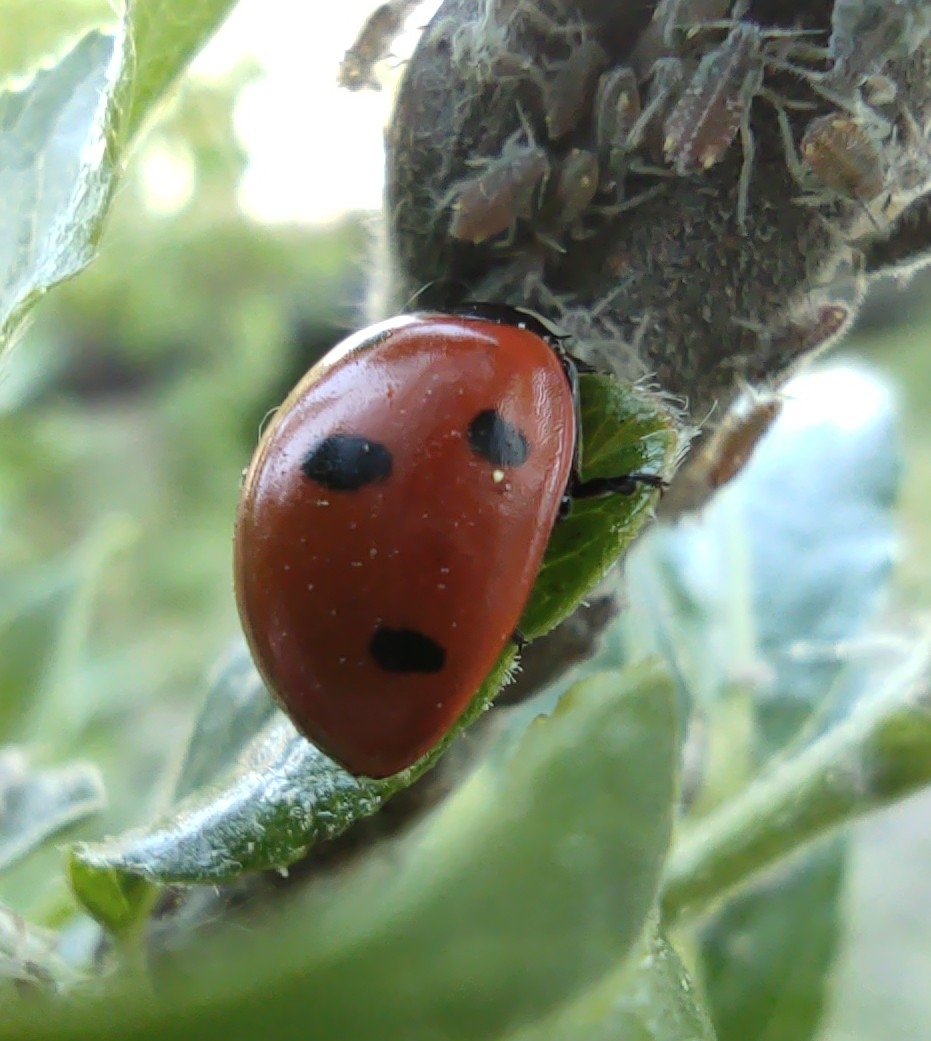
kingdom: Animalia
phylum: Arthropoda
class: Insecta
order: Coleoptera
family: Coccinellidae
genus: Coccinella
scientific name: Coccinella septempunctata
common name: Sevenspotted lady beetle
